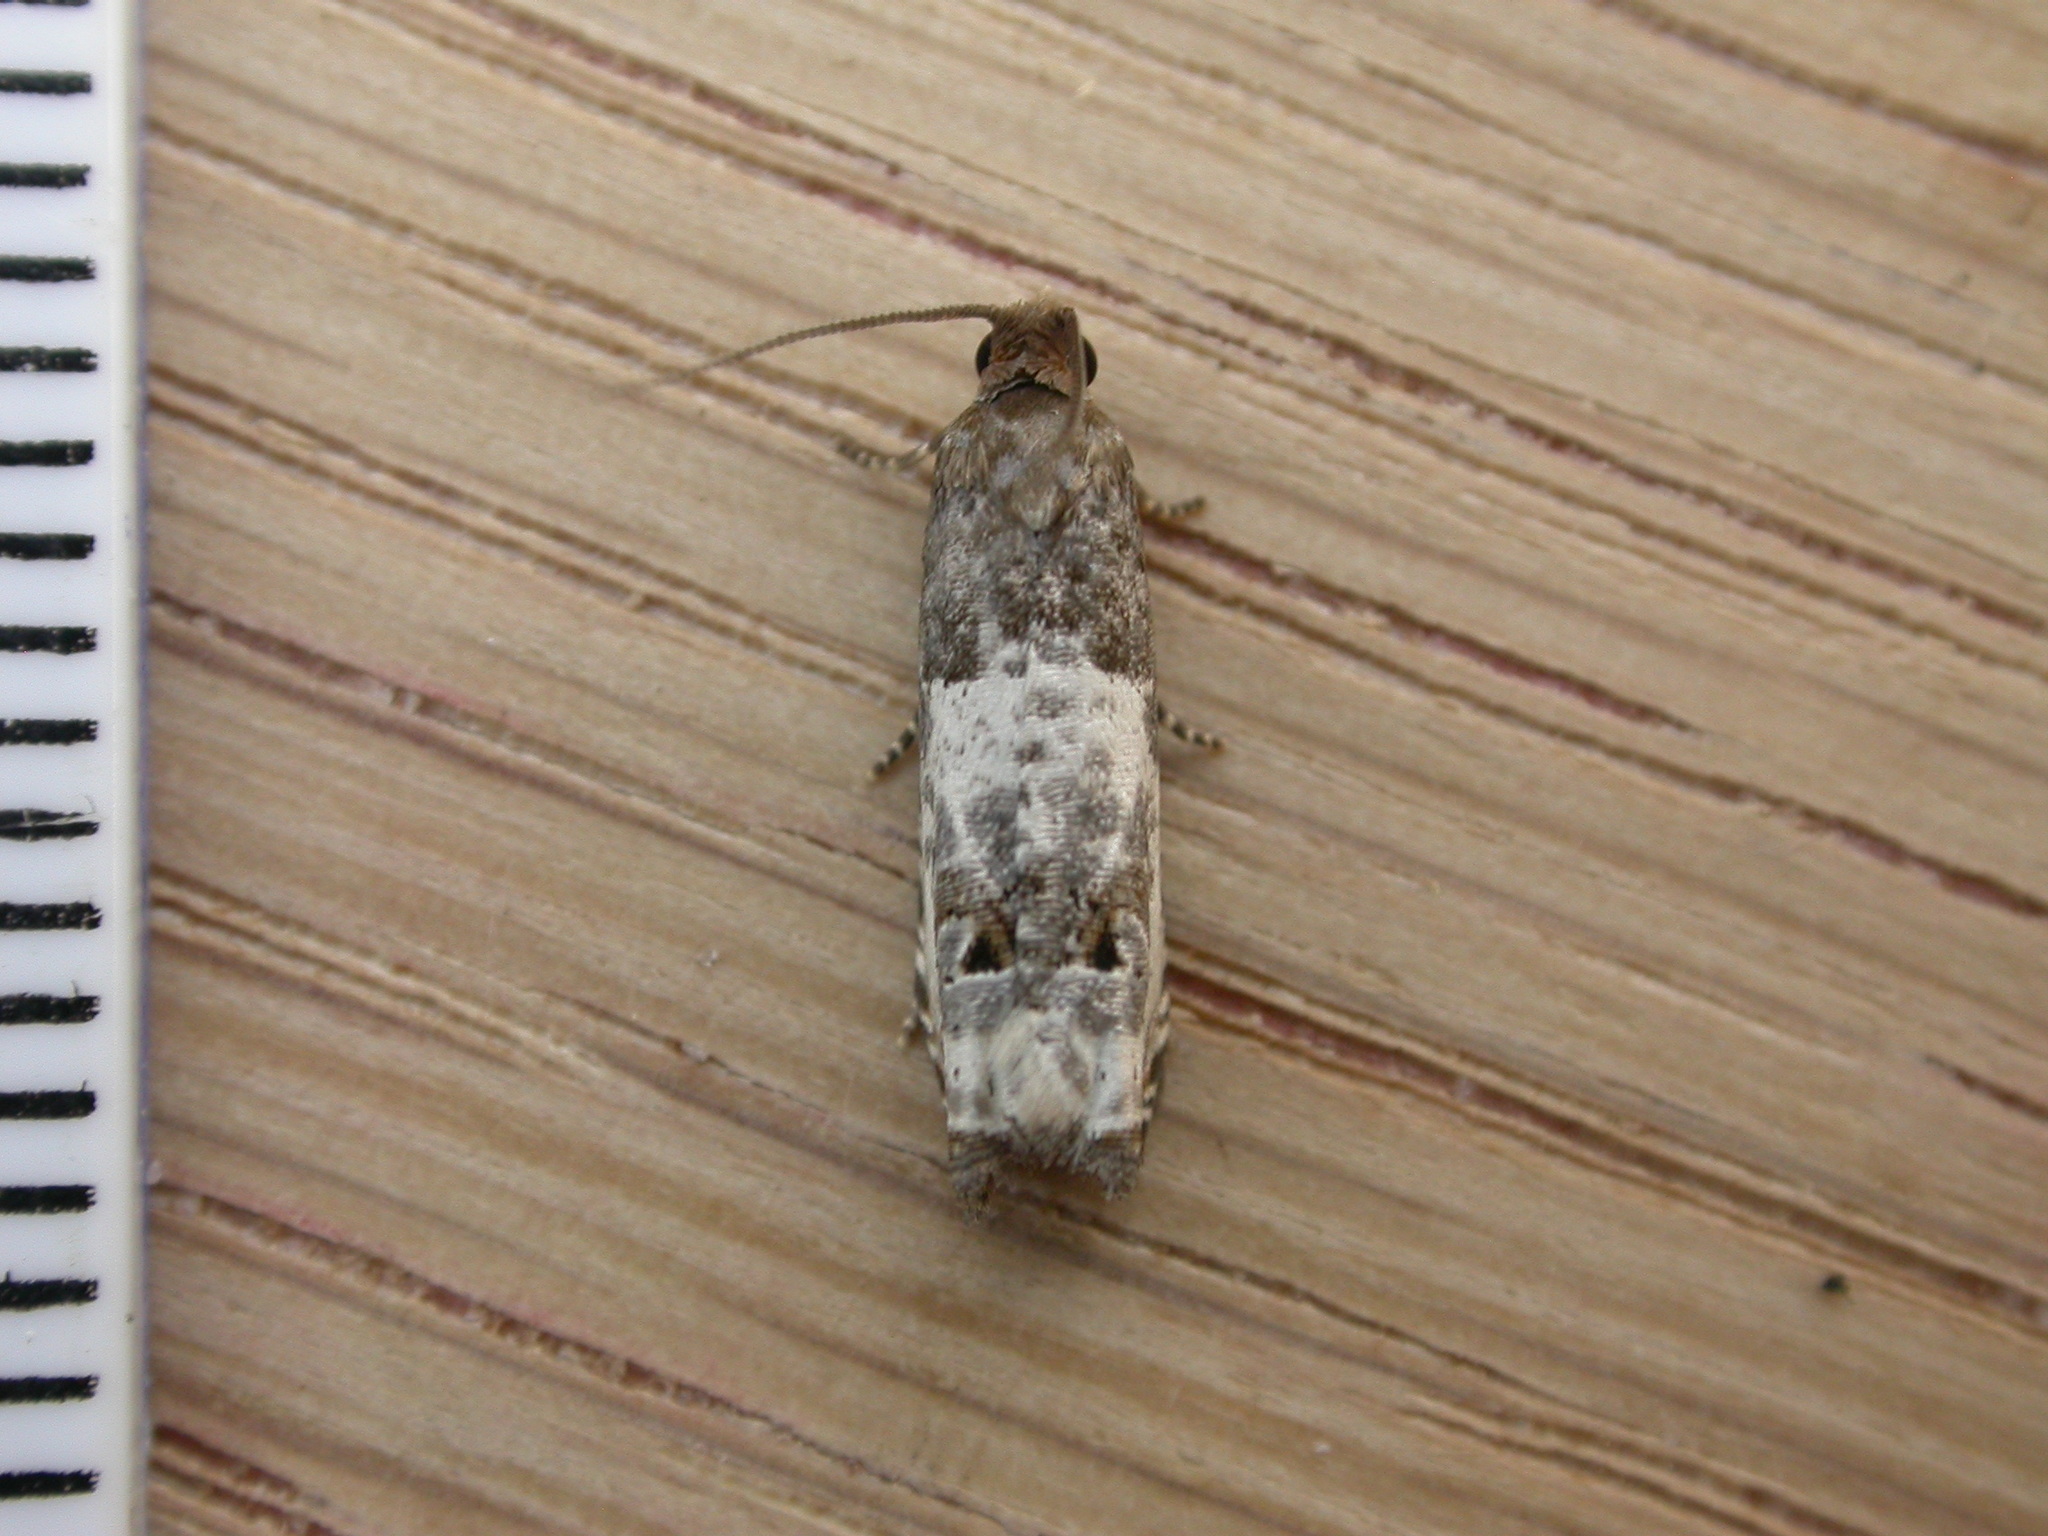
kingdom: Animalia
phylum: Arthropoda
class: Insecta
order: Lepidoptera
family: Tortricidae
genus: Notocelia
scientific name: Notocelia rosaecolana
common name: Common rose bell
